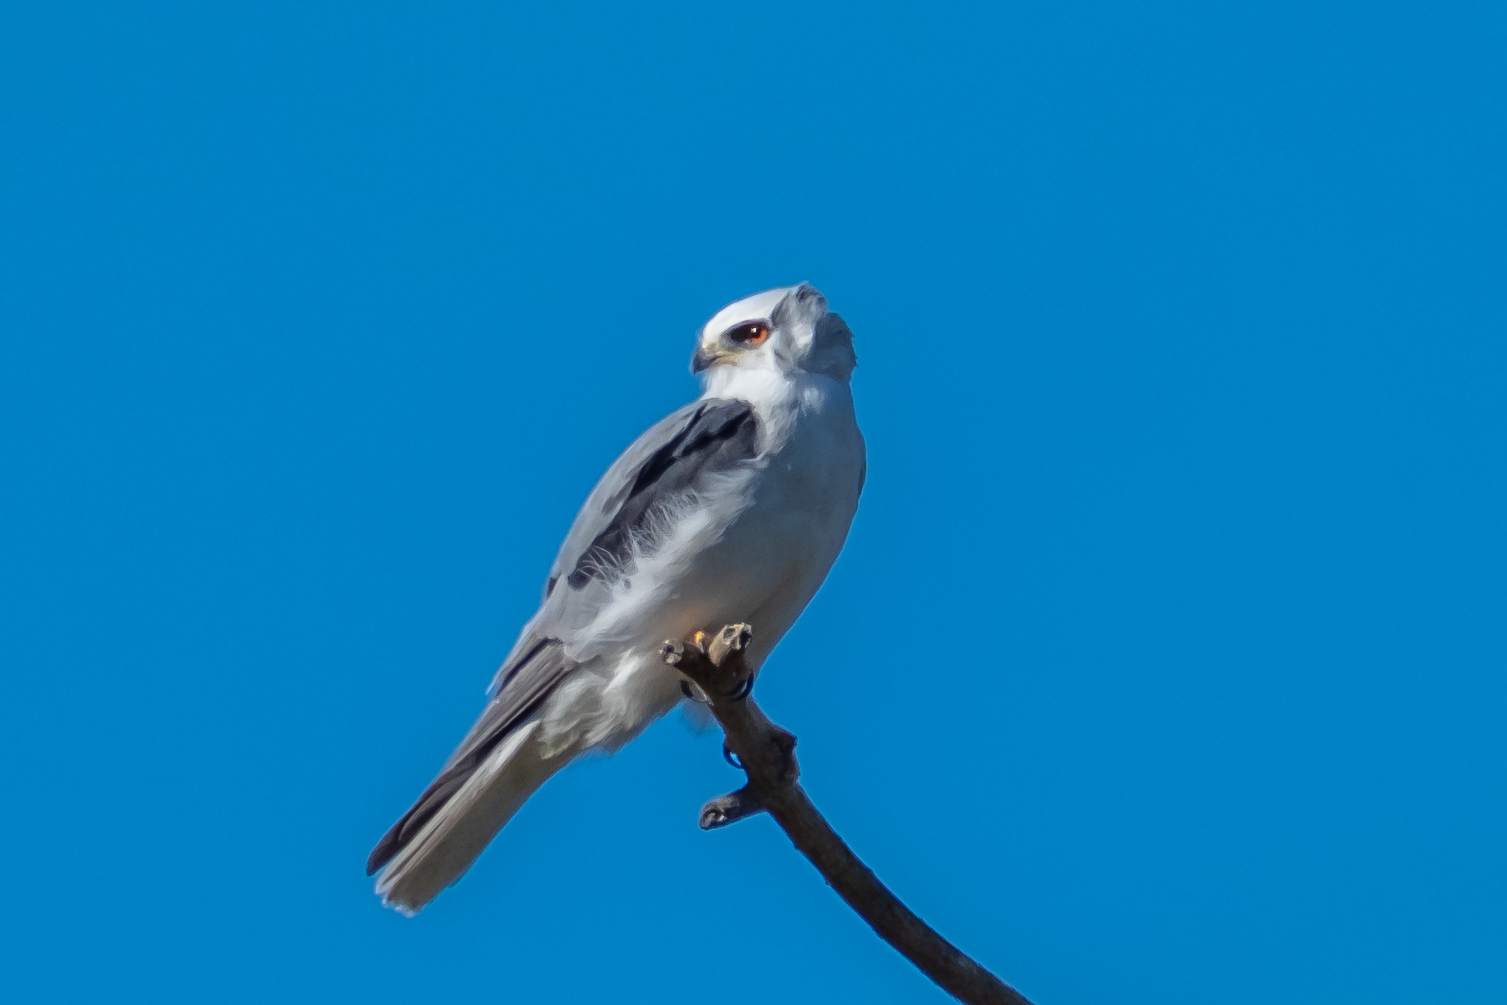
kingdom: Animalia
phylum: Chordata
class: Aves
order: Accipitriformes
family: Accipitridae
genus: Elanus
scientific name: Elanus leucurus
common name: White-tailed kite
